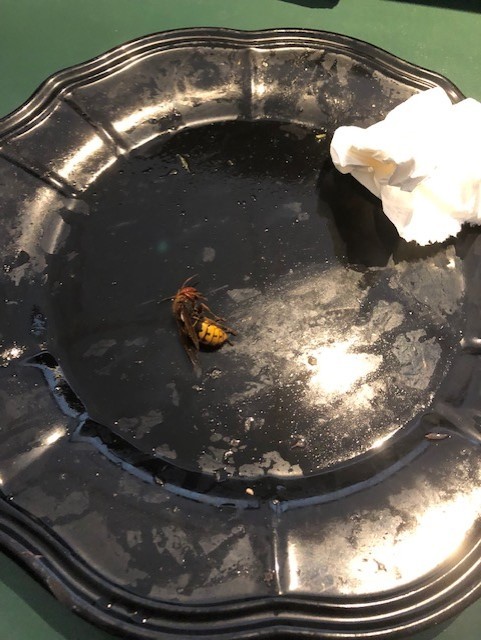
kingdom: Animalia
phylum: Arthropoda
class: Insecta
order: Hymenoptera
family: Vespidae
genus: Vespa
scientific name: Vespa crabro
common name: Hornet
